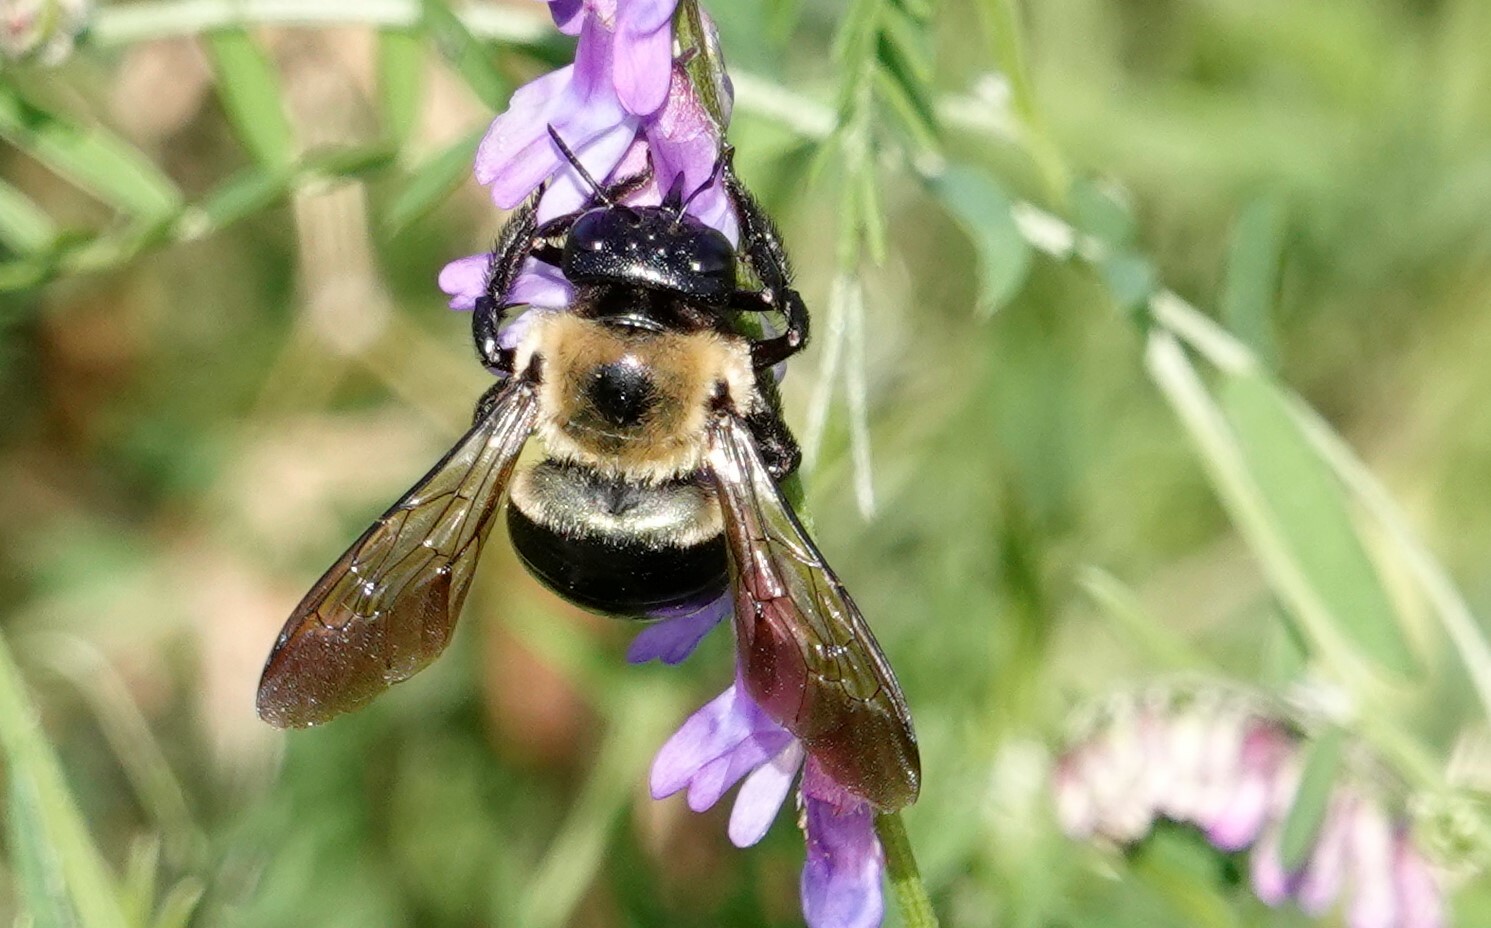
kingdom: Animalia
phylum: Arthropoda
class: Insecta
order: Hymenoptera
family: Apidae
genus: Xylocopa
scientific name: Xylocopa virginica
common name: Carpenter bee
